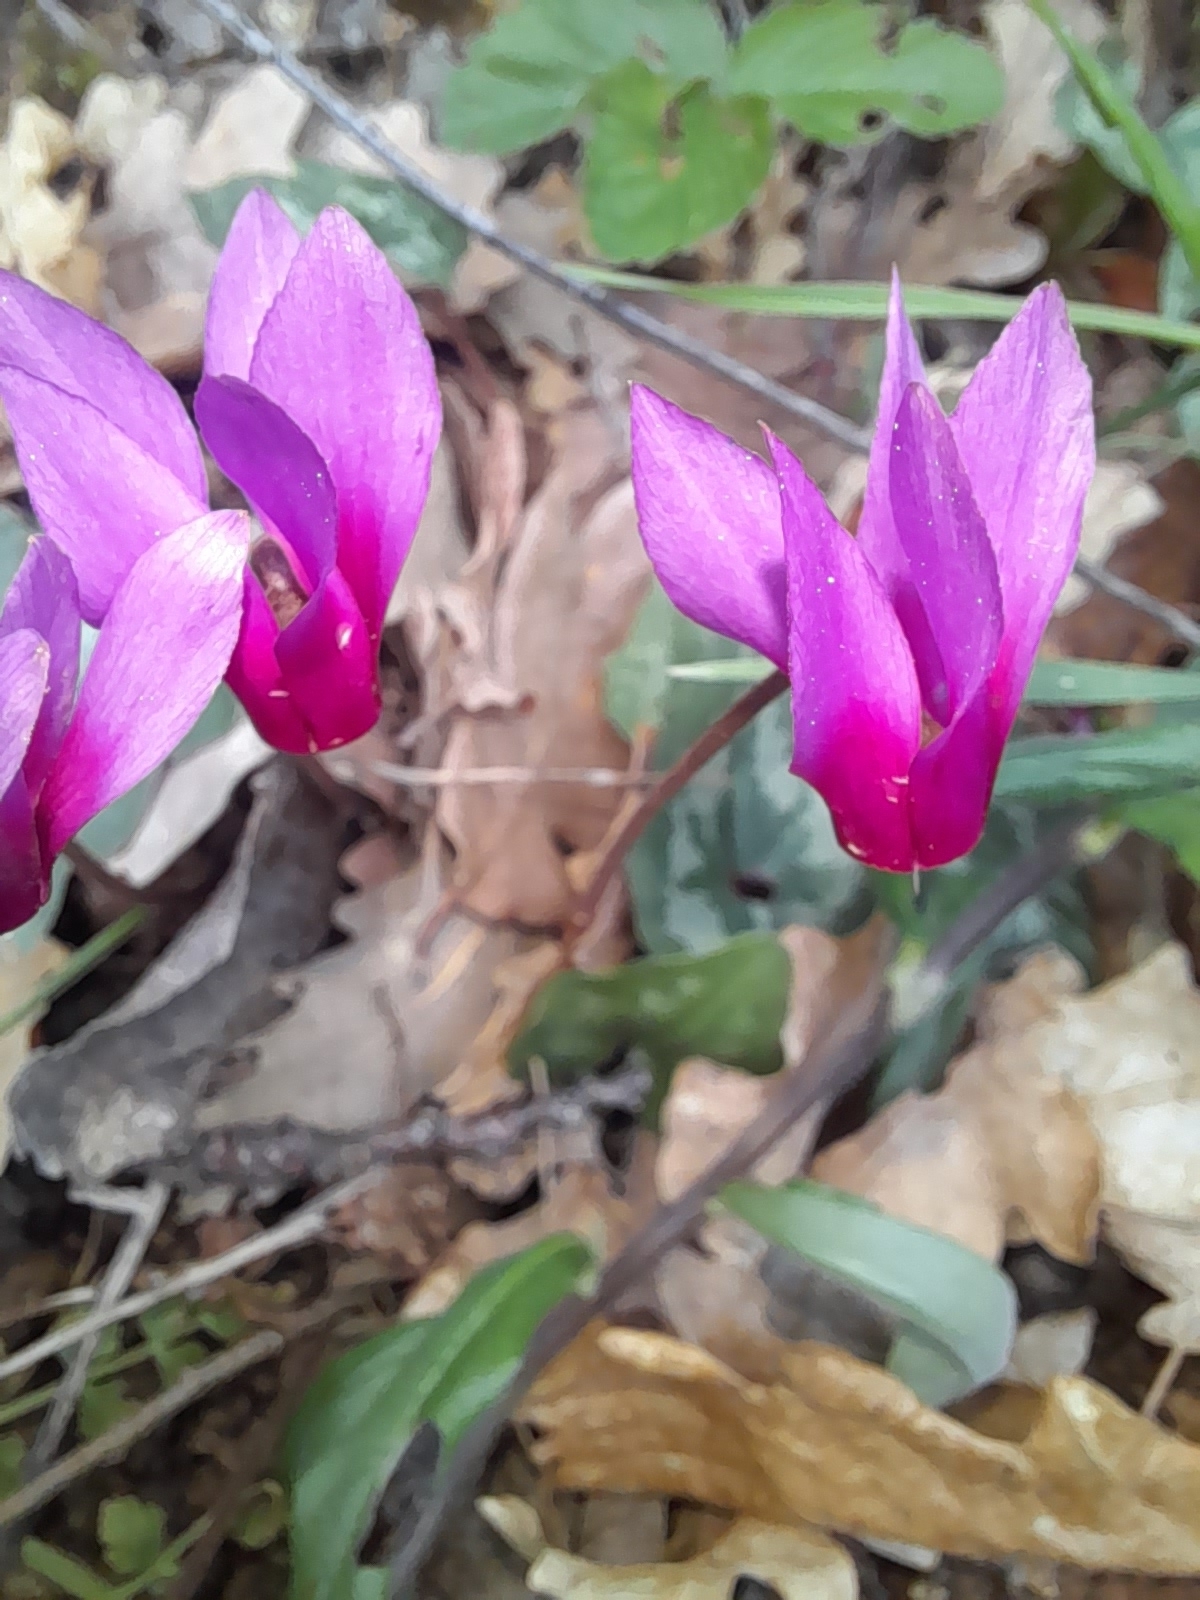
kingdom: Plantae
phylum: Tracheophyta
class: Magnoliopsida
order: Ericales
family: Primulaceae
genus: Cyclamen
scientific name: Cyclamen repandum
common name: Spring sowbread
